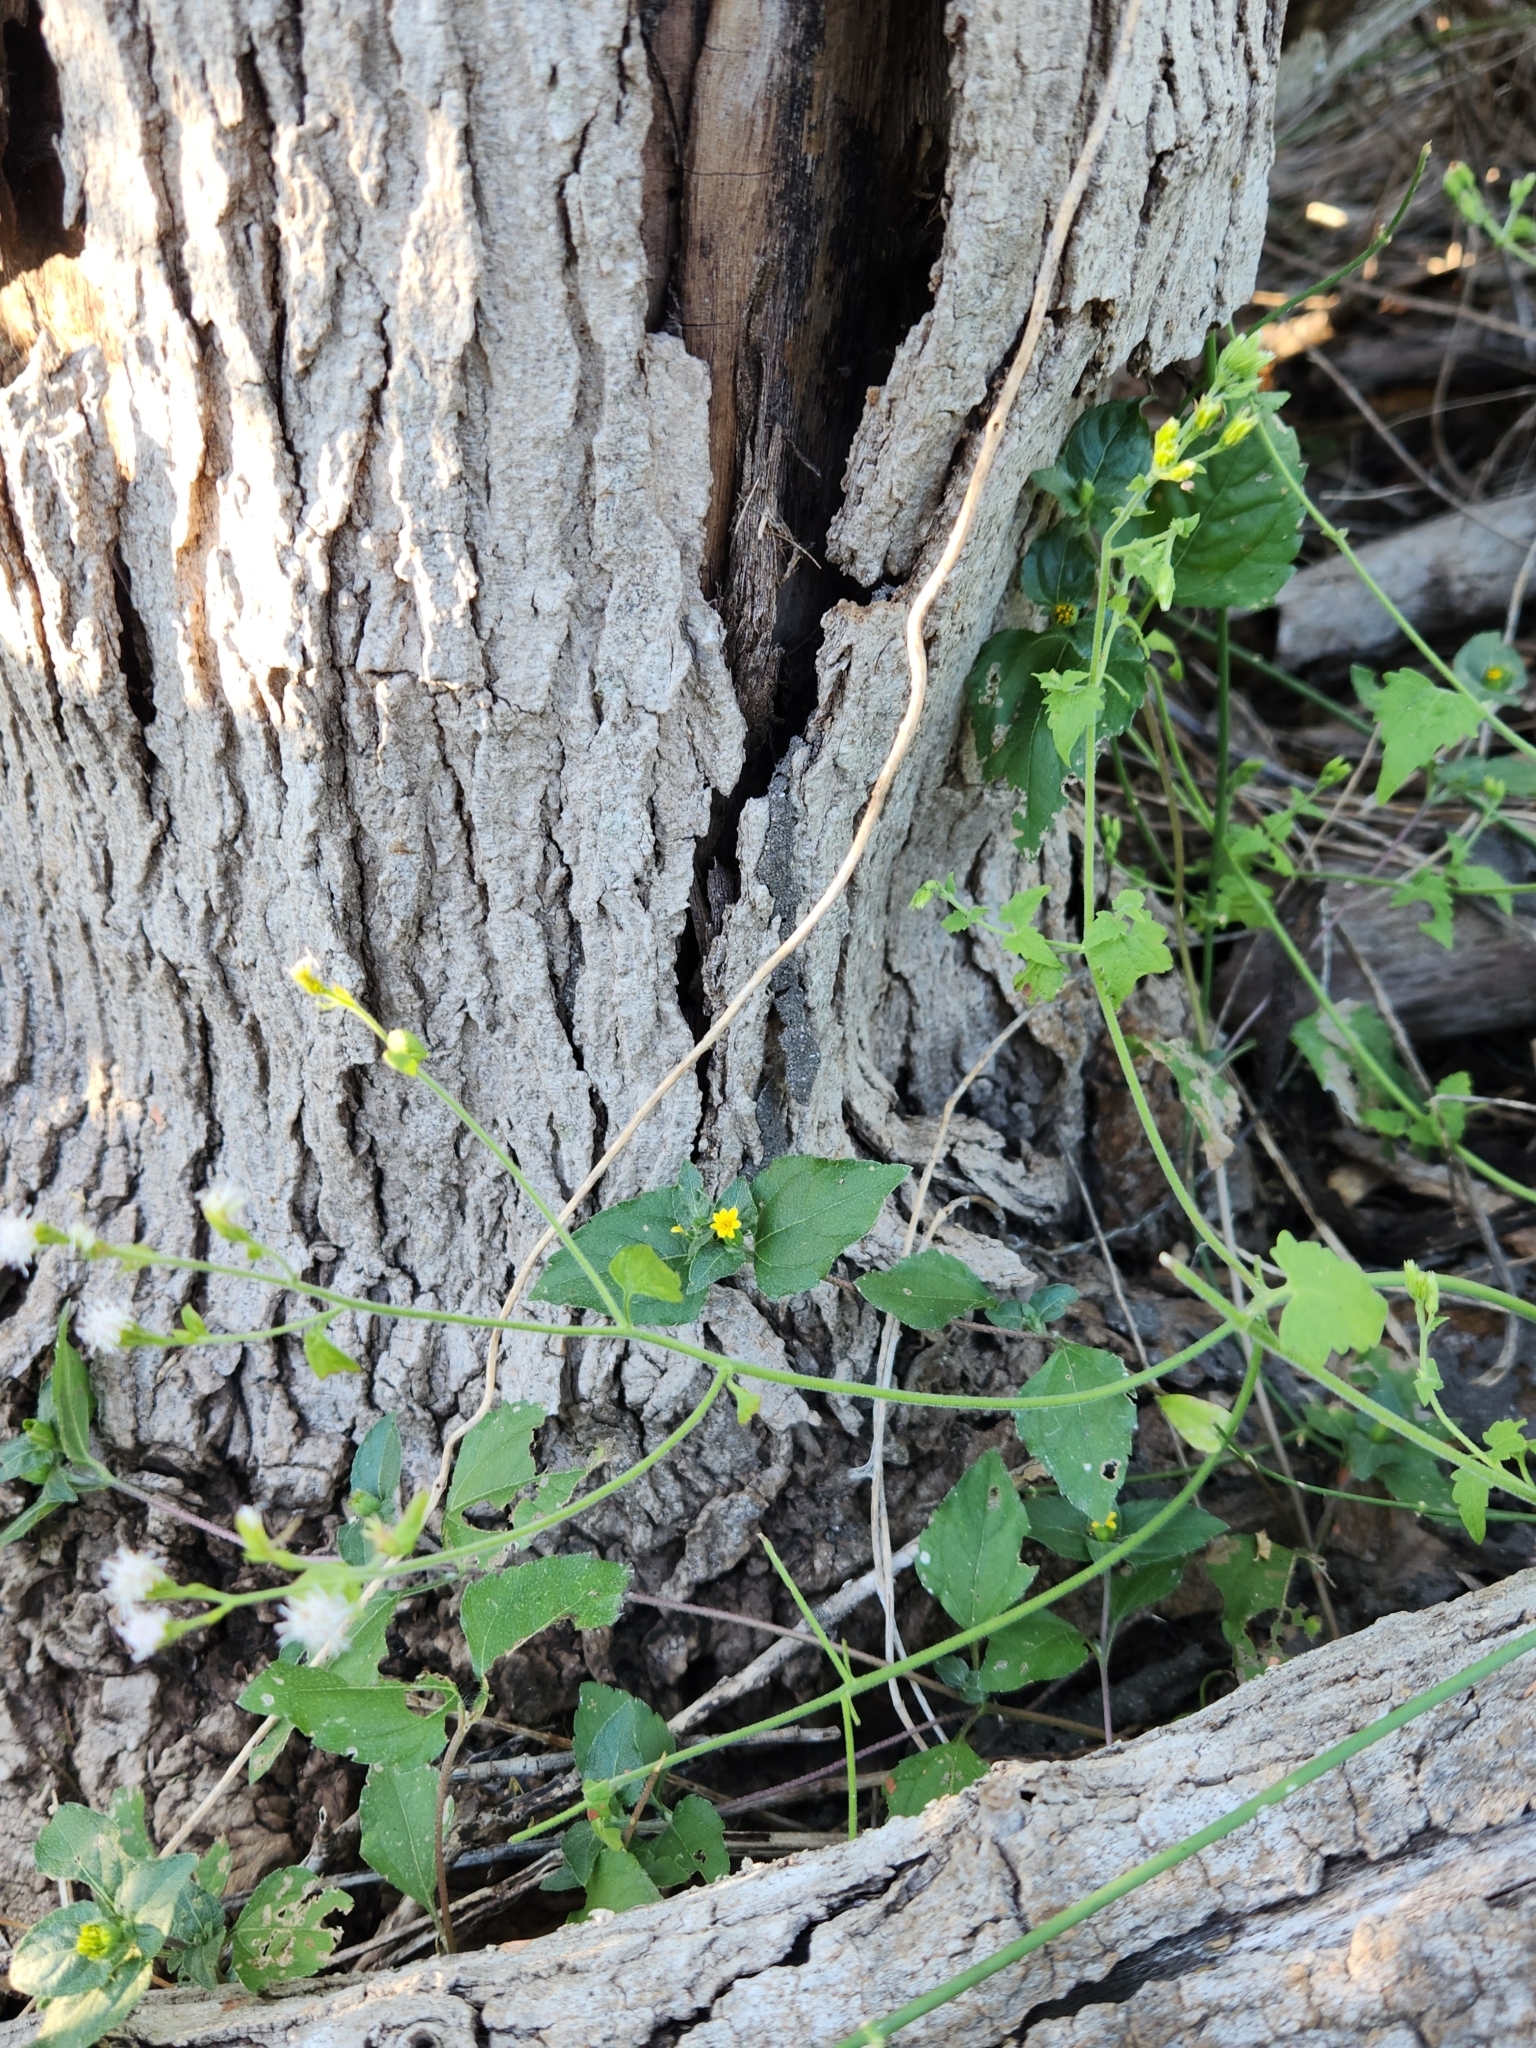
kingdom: Plantae
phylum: Tracheophyta
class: Magnoliopsida
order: Asterales
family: Asteraceae
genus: Fleischmannia
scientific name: Fleischmannia incarnata
